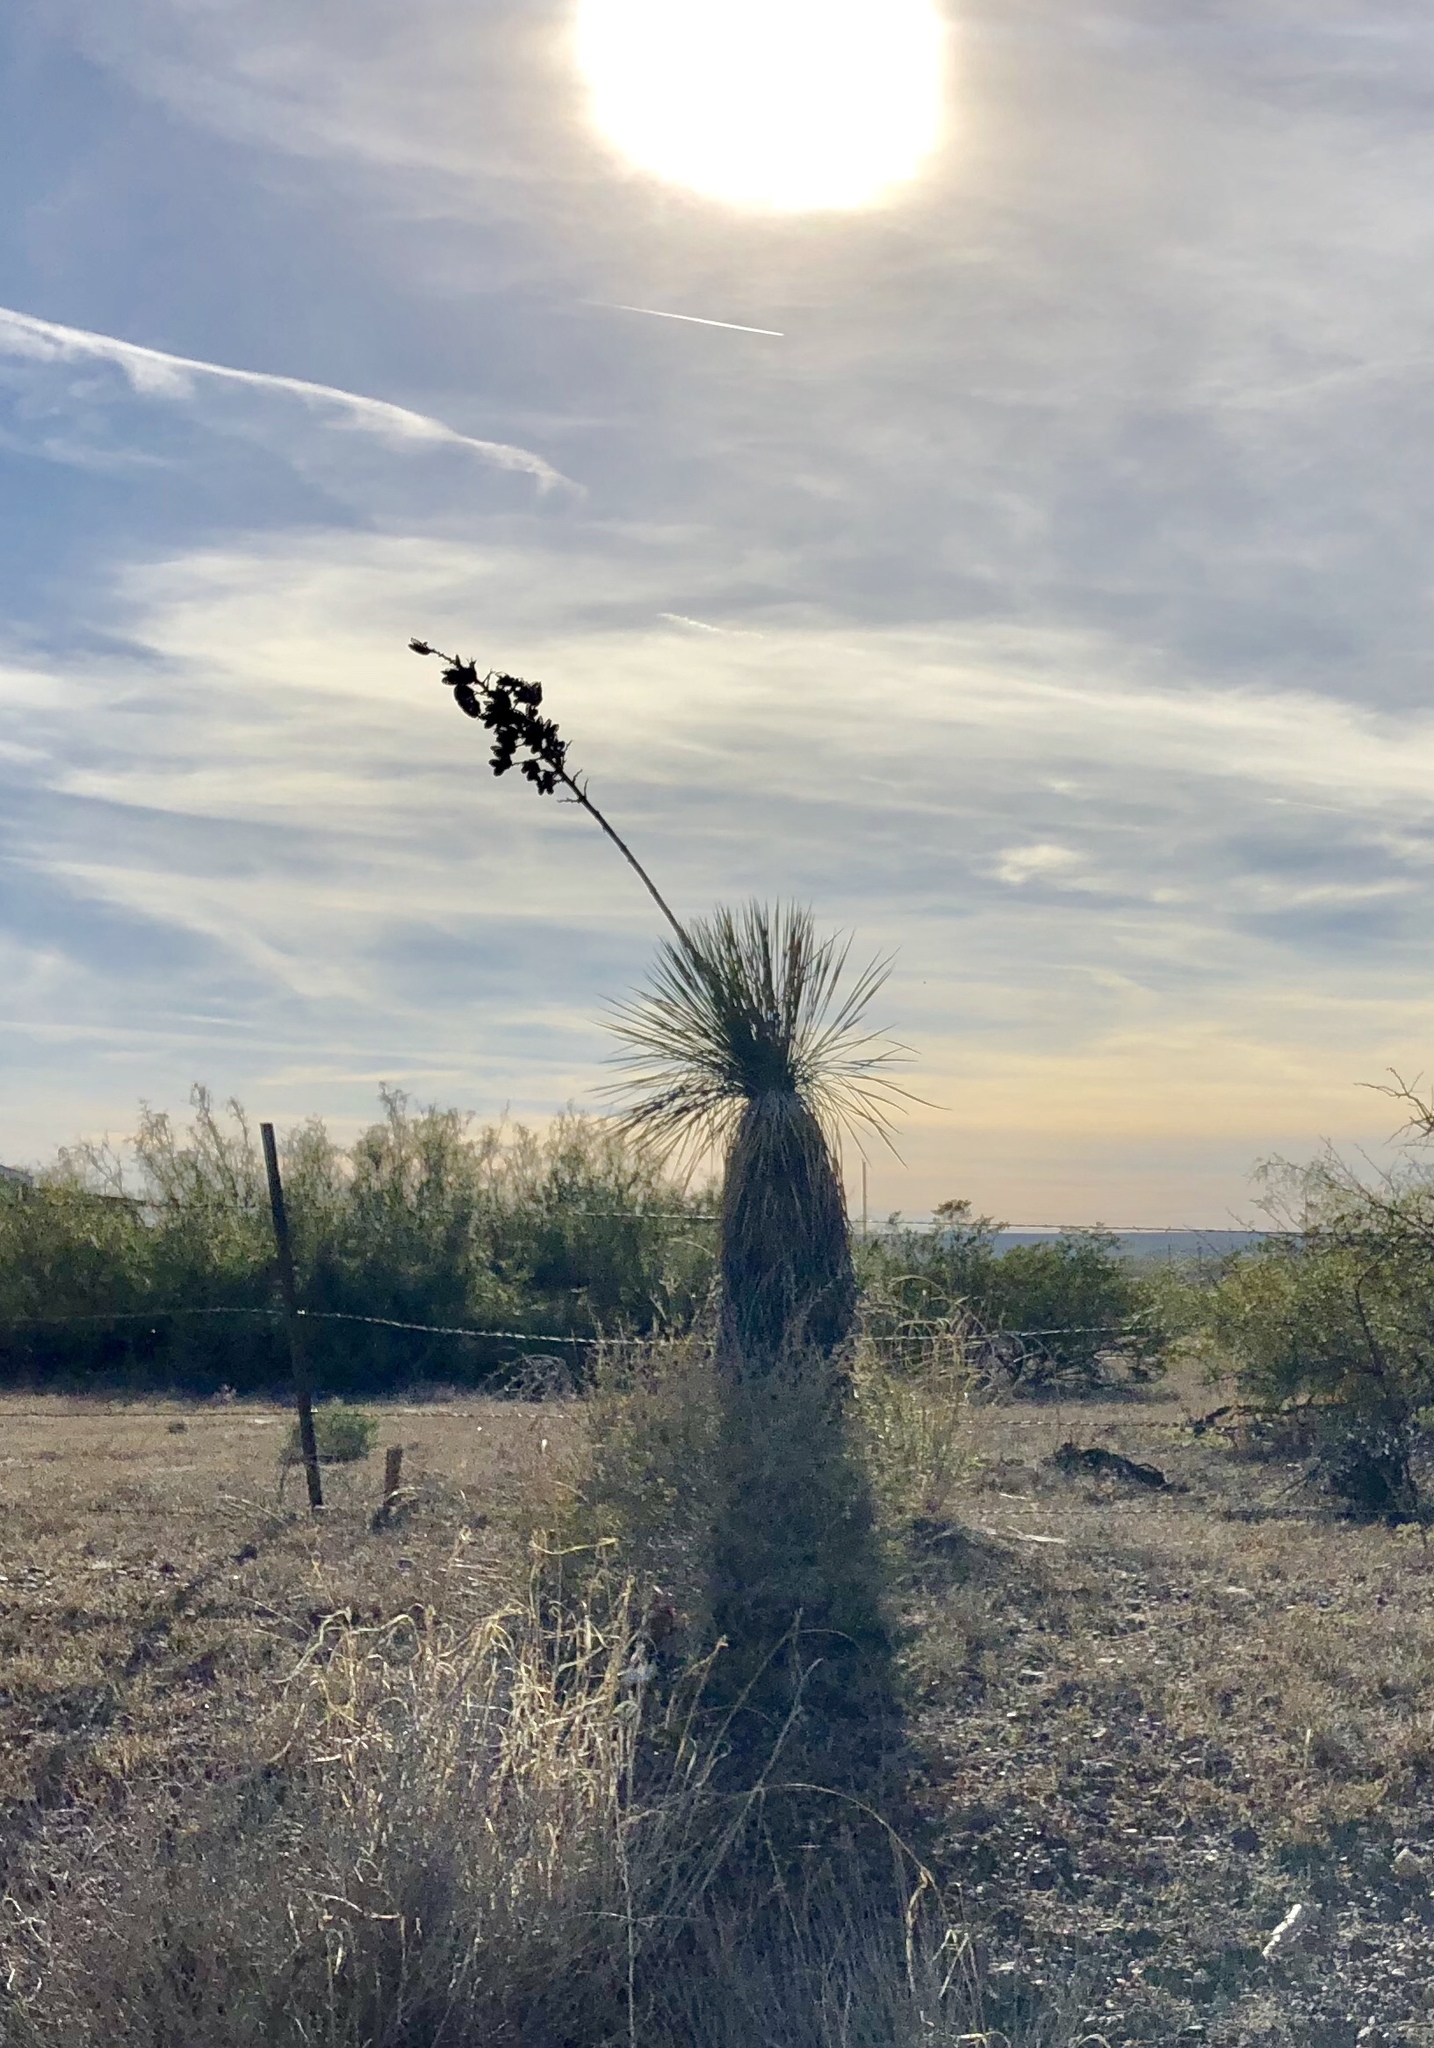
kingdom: Plantae
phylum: Tracheophyta
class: Liliopsida
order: Asparagales
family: Asparagaceae
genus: Yucca
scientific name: Yucca elata
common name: Palmella
